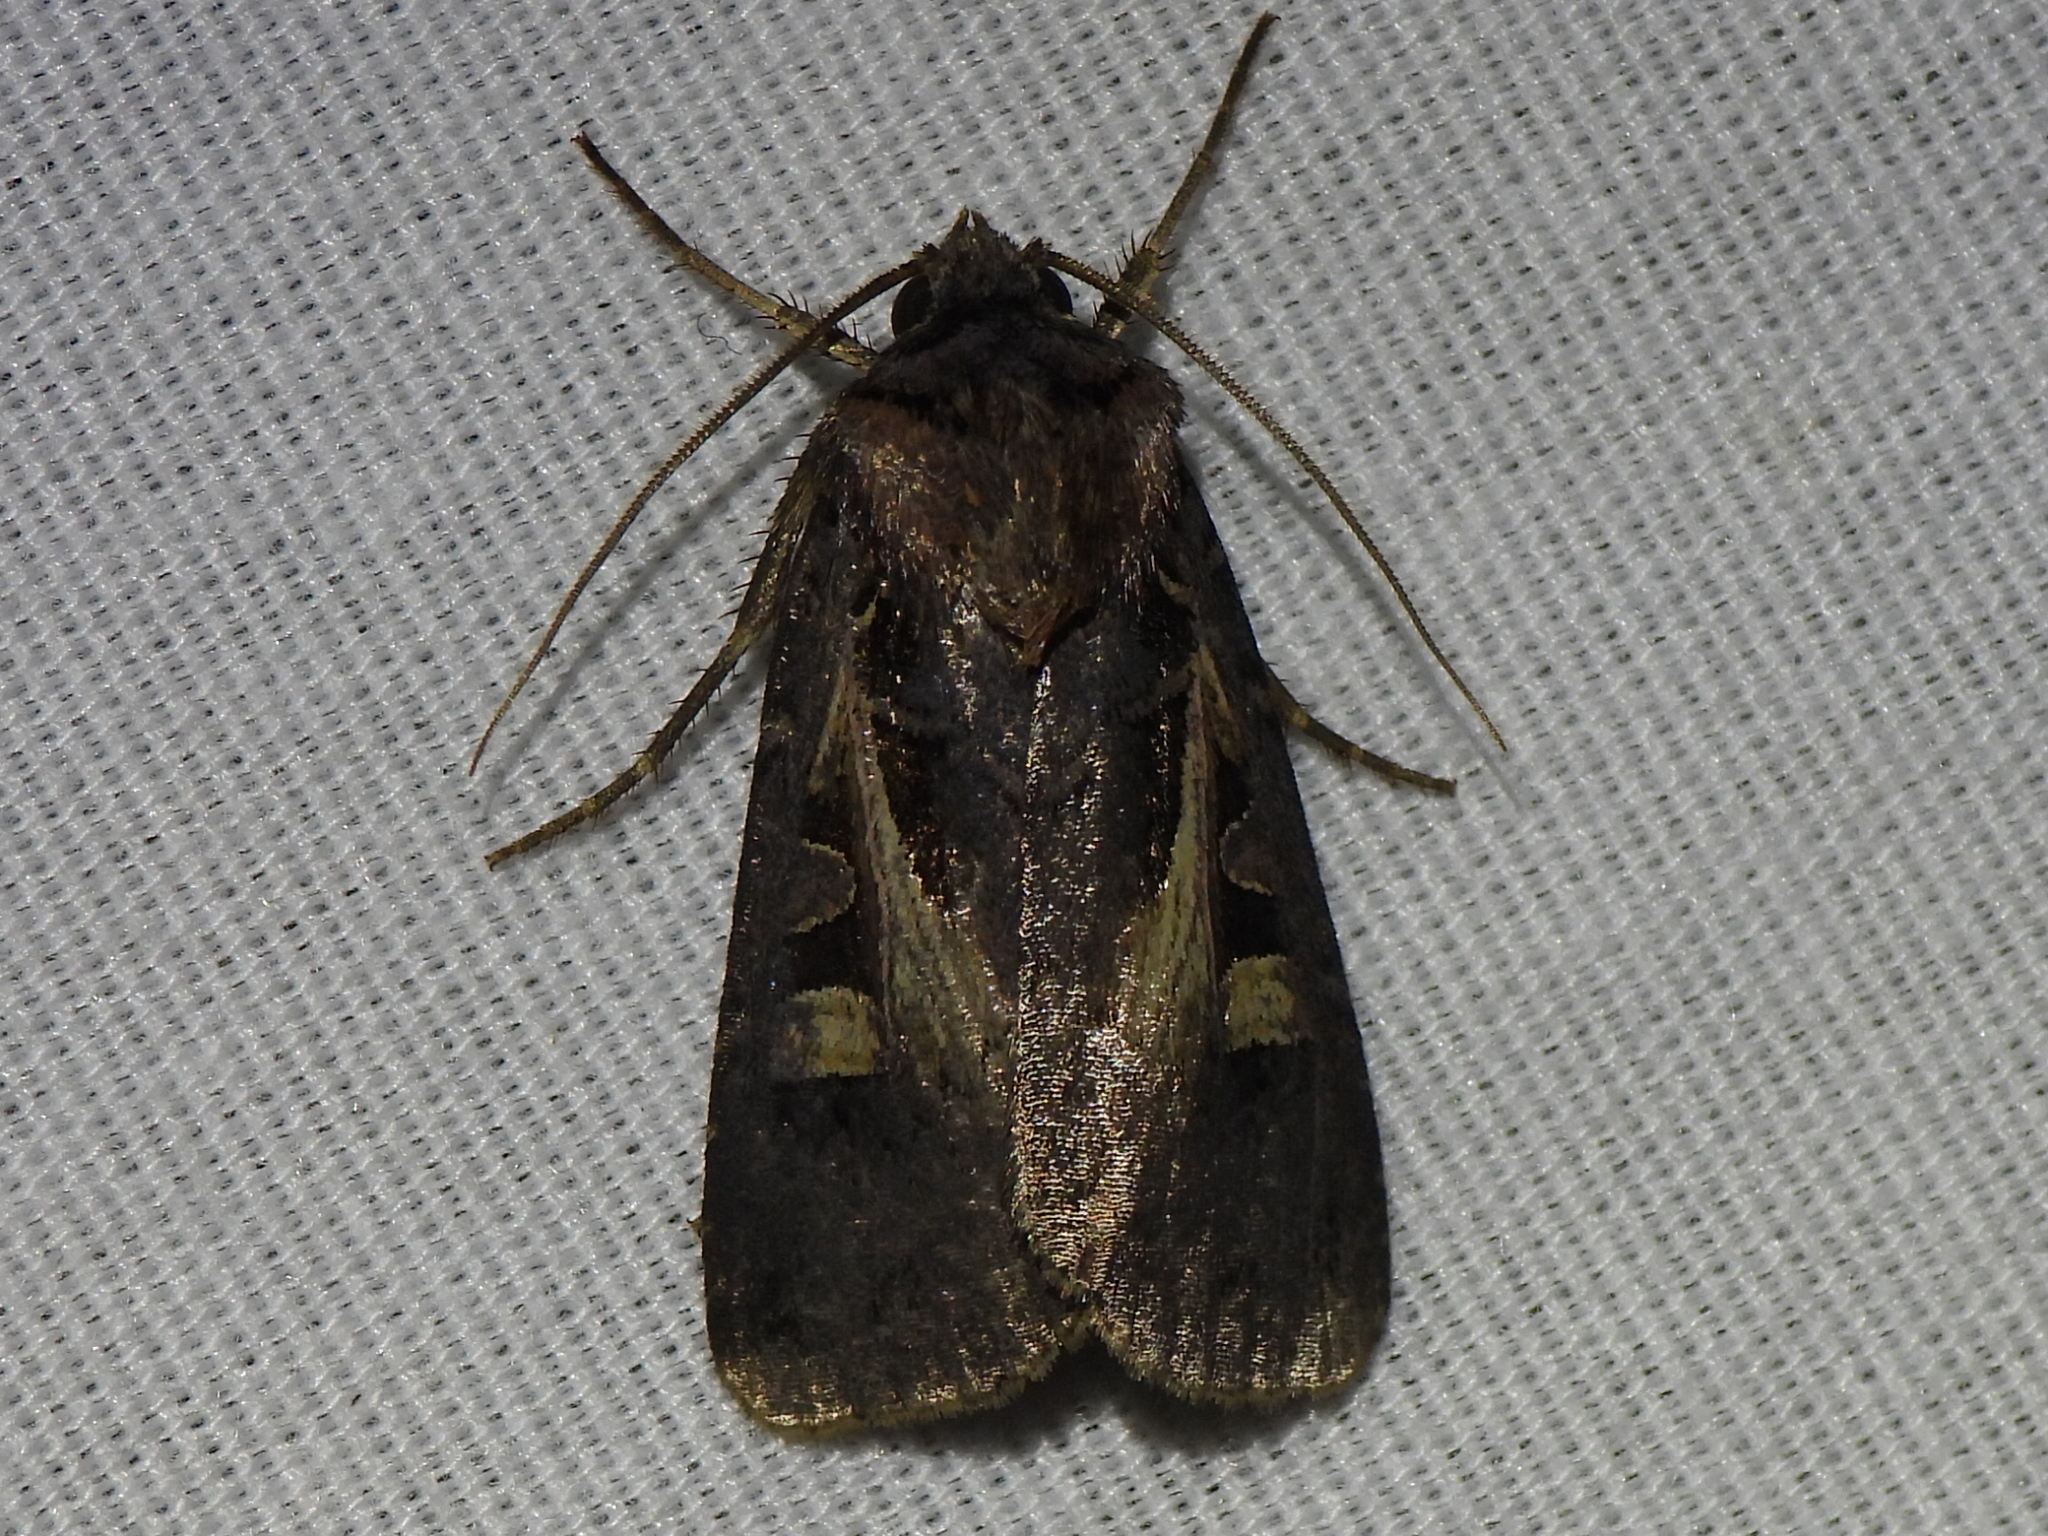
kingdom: Animalia
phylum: Arthropoda
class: Insecta
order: Lepidoptera
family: Noctuidae
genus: Feltia
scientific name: Feltia herilis
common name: Master's dart
